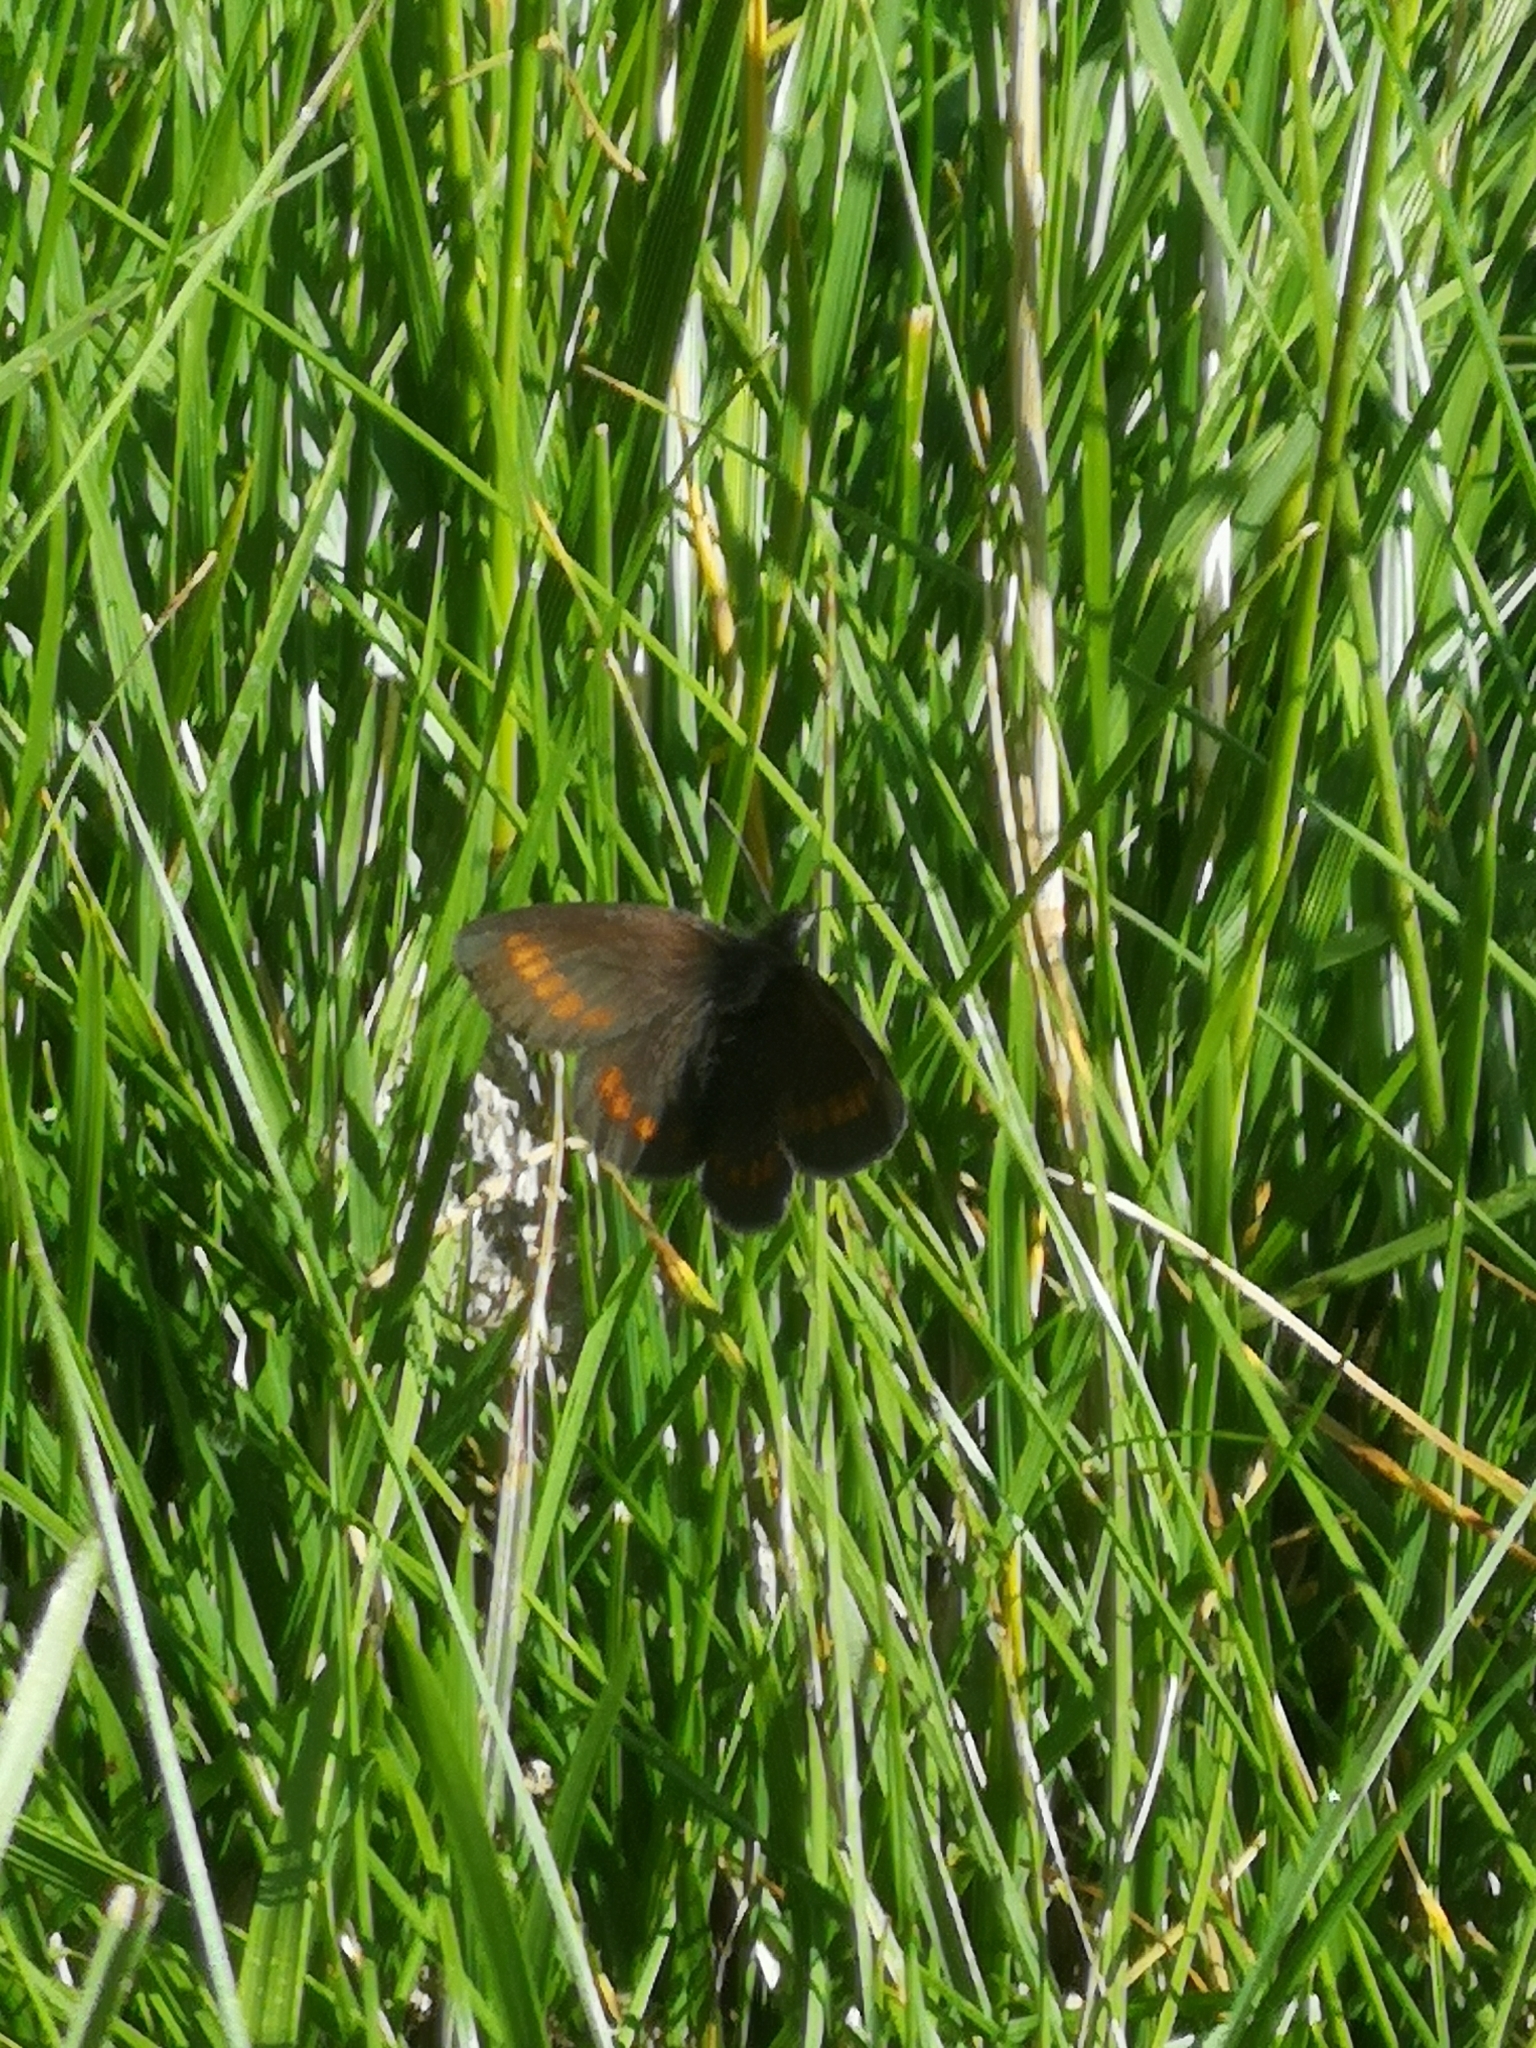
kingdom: Animalia
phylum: Arthropoda
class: Insecta
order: Lepidoptera
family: Nymphalidae
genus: Erebia
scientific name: Erebia pharte
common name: Blind ringlet
